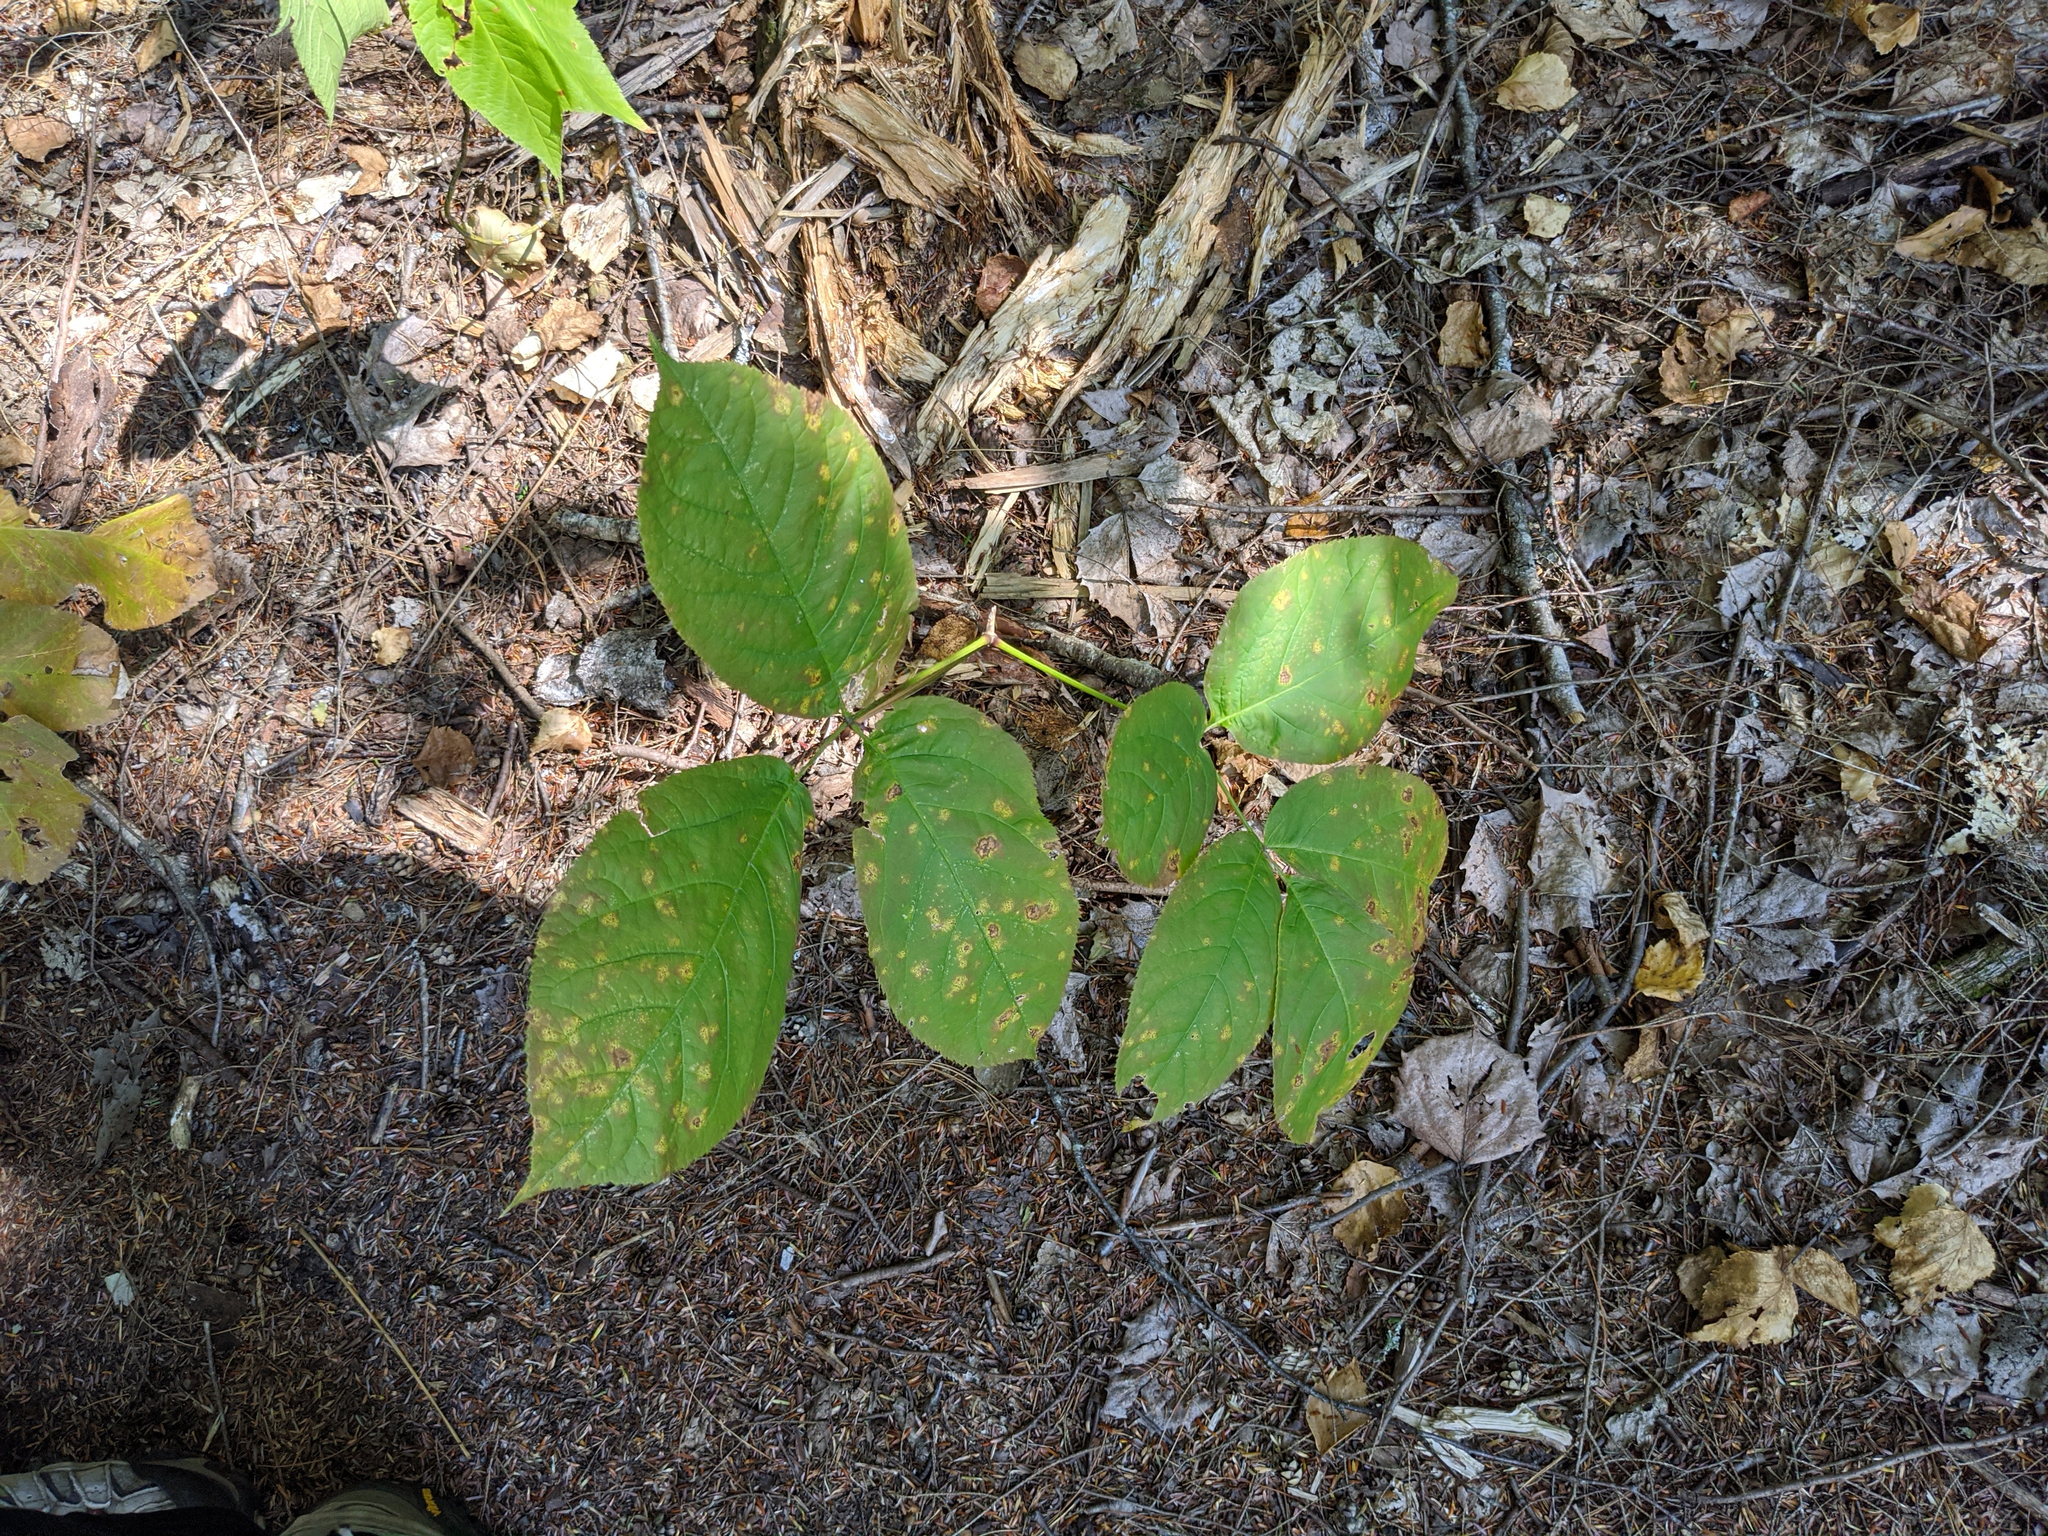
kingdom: Plantae
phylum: Tracheophyta
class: Magnoliopsida
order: Apiales
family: Araliaceae
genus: Aralia
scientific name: Aralia nudicaulis
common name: Wild sarsaparilla
